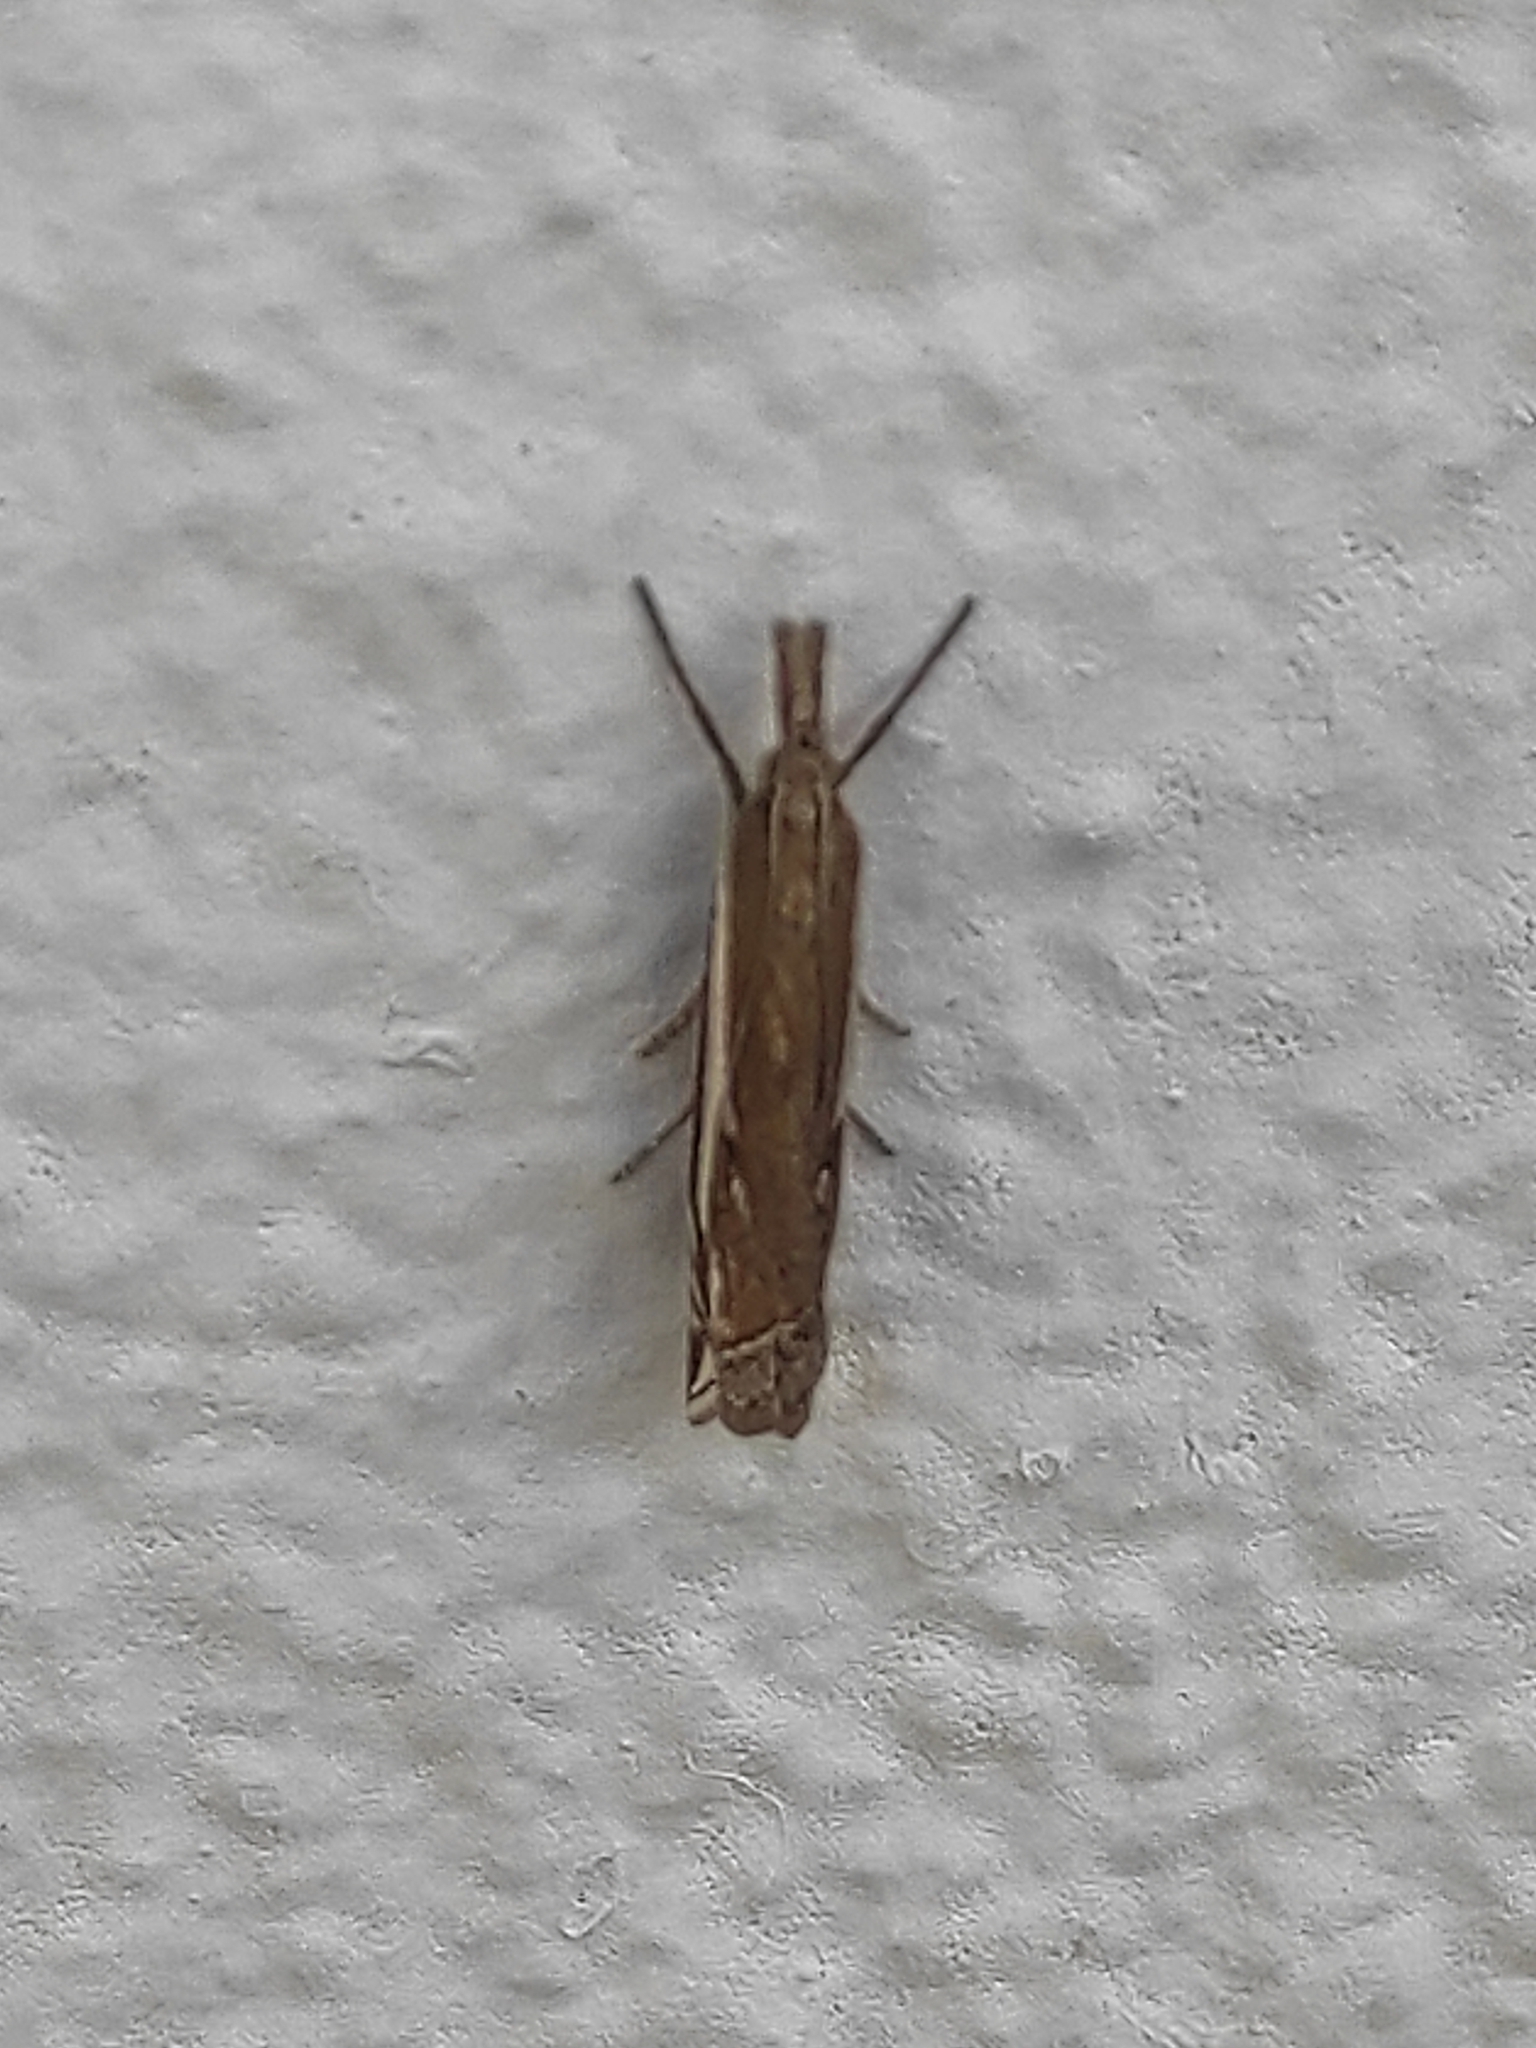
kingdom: Animalia
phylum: Arthropoda
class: Insecta
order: Lepidoptera
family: Crambidae
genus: Crambus
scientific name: Crambus nemorella
